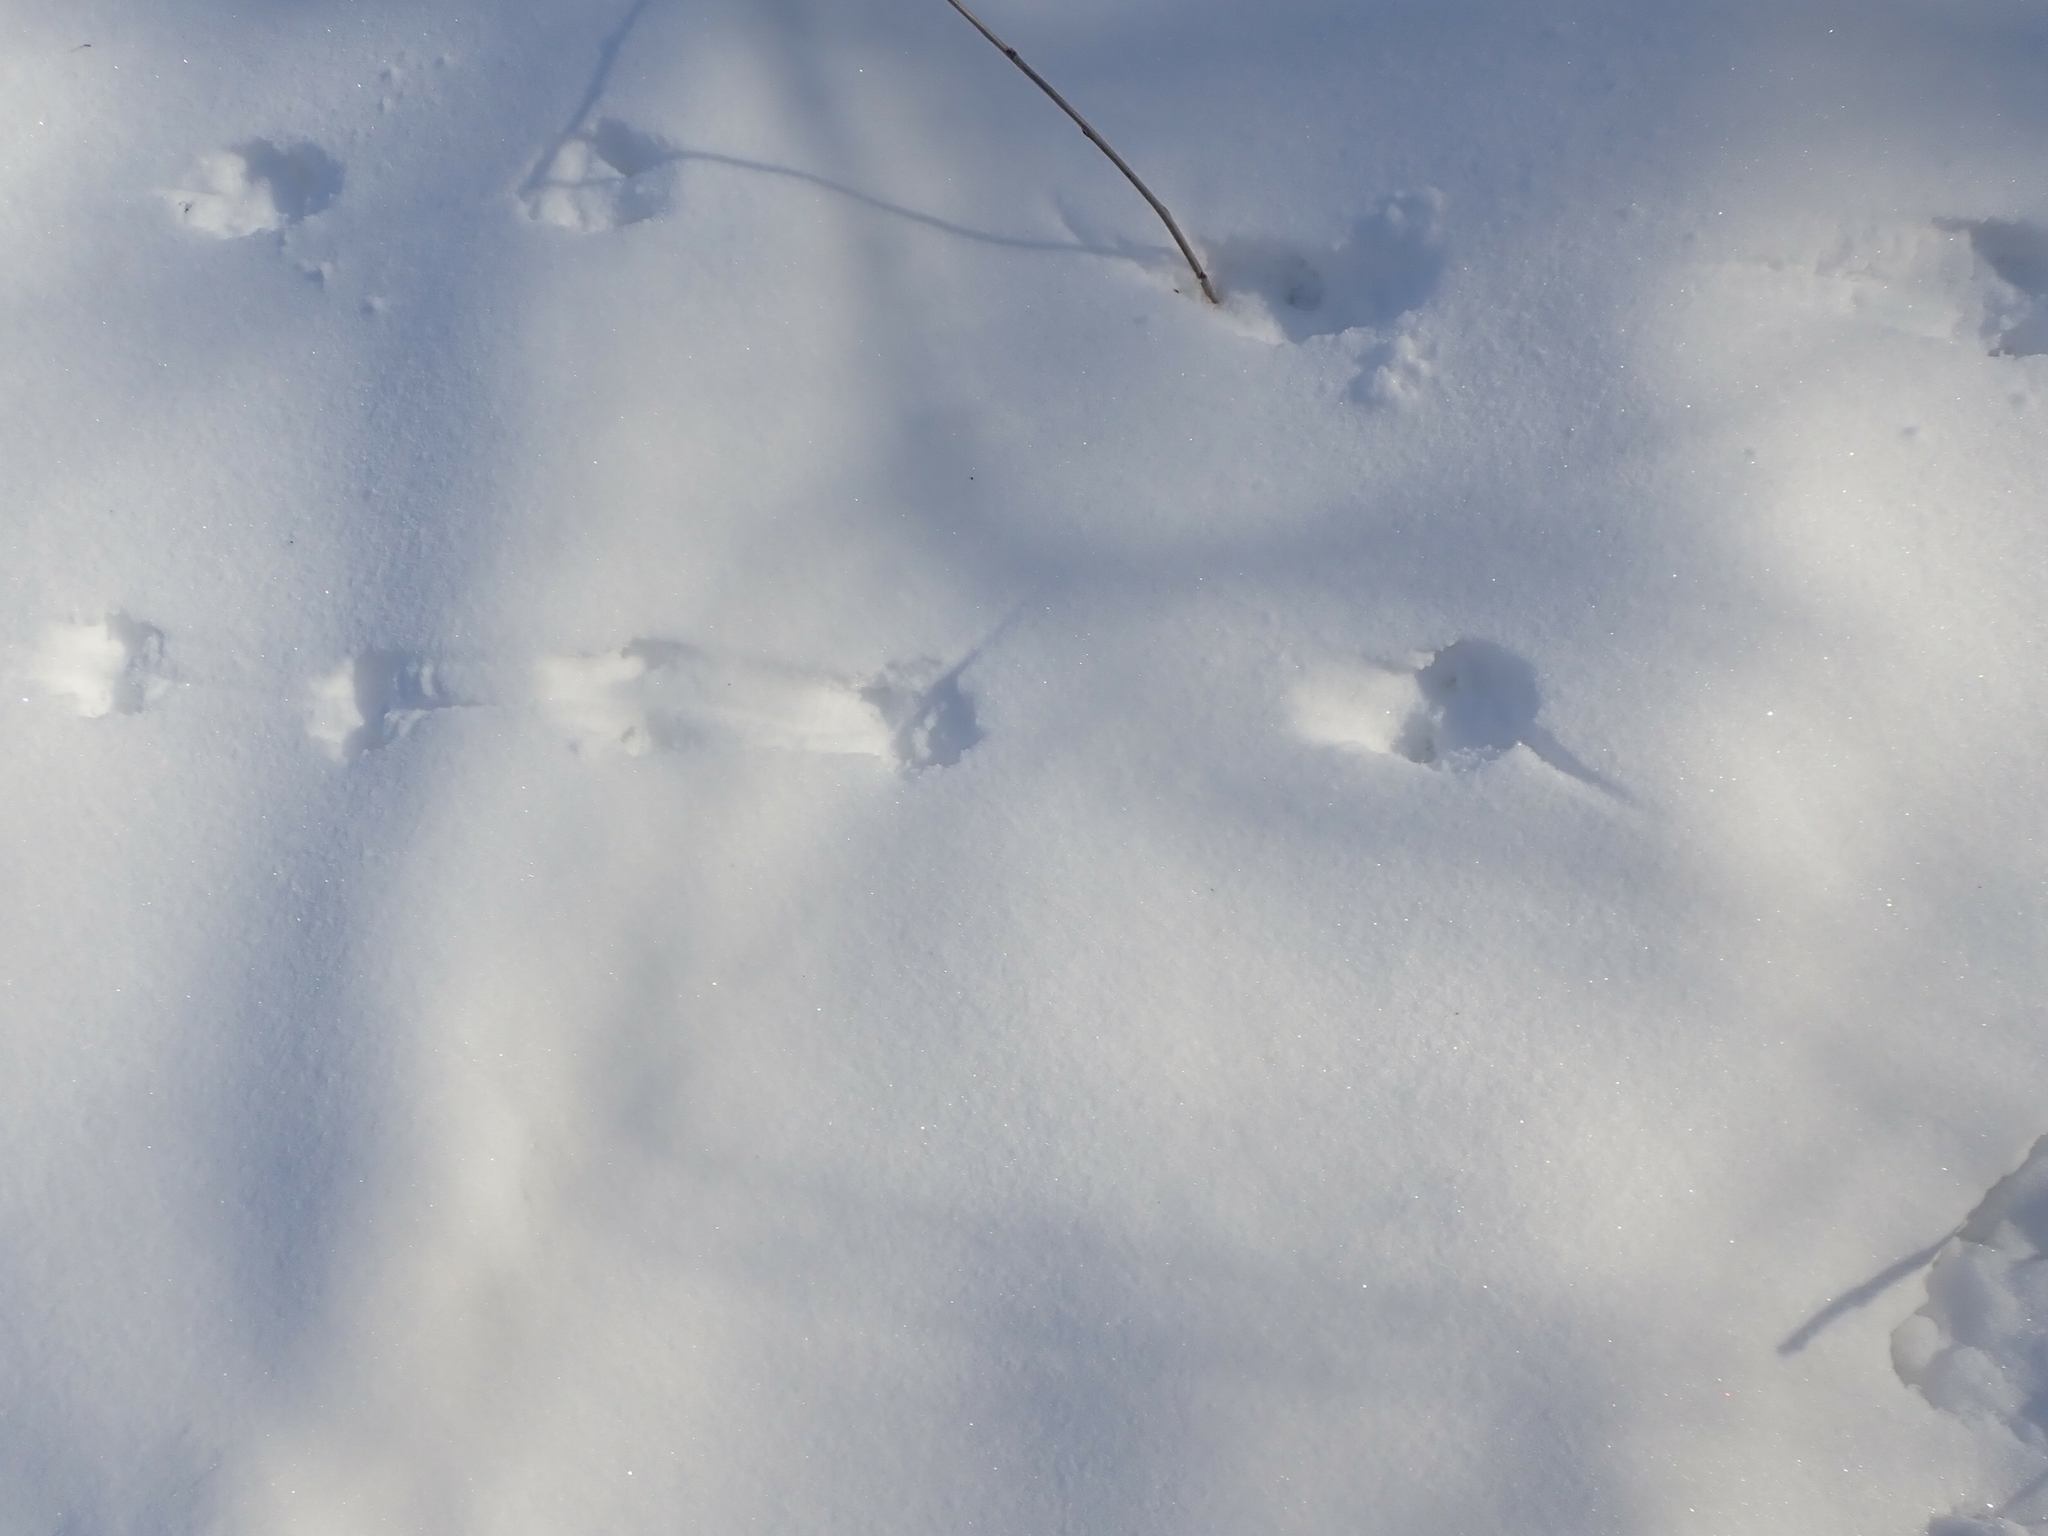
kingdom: Animalia
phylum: Chordata
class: Mammalia
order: Rodentia
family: Cricetidae
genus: Peromyscus
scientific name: Peromyscus maniculatus
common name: Deer mouse
